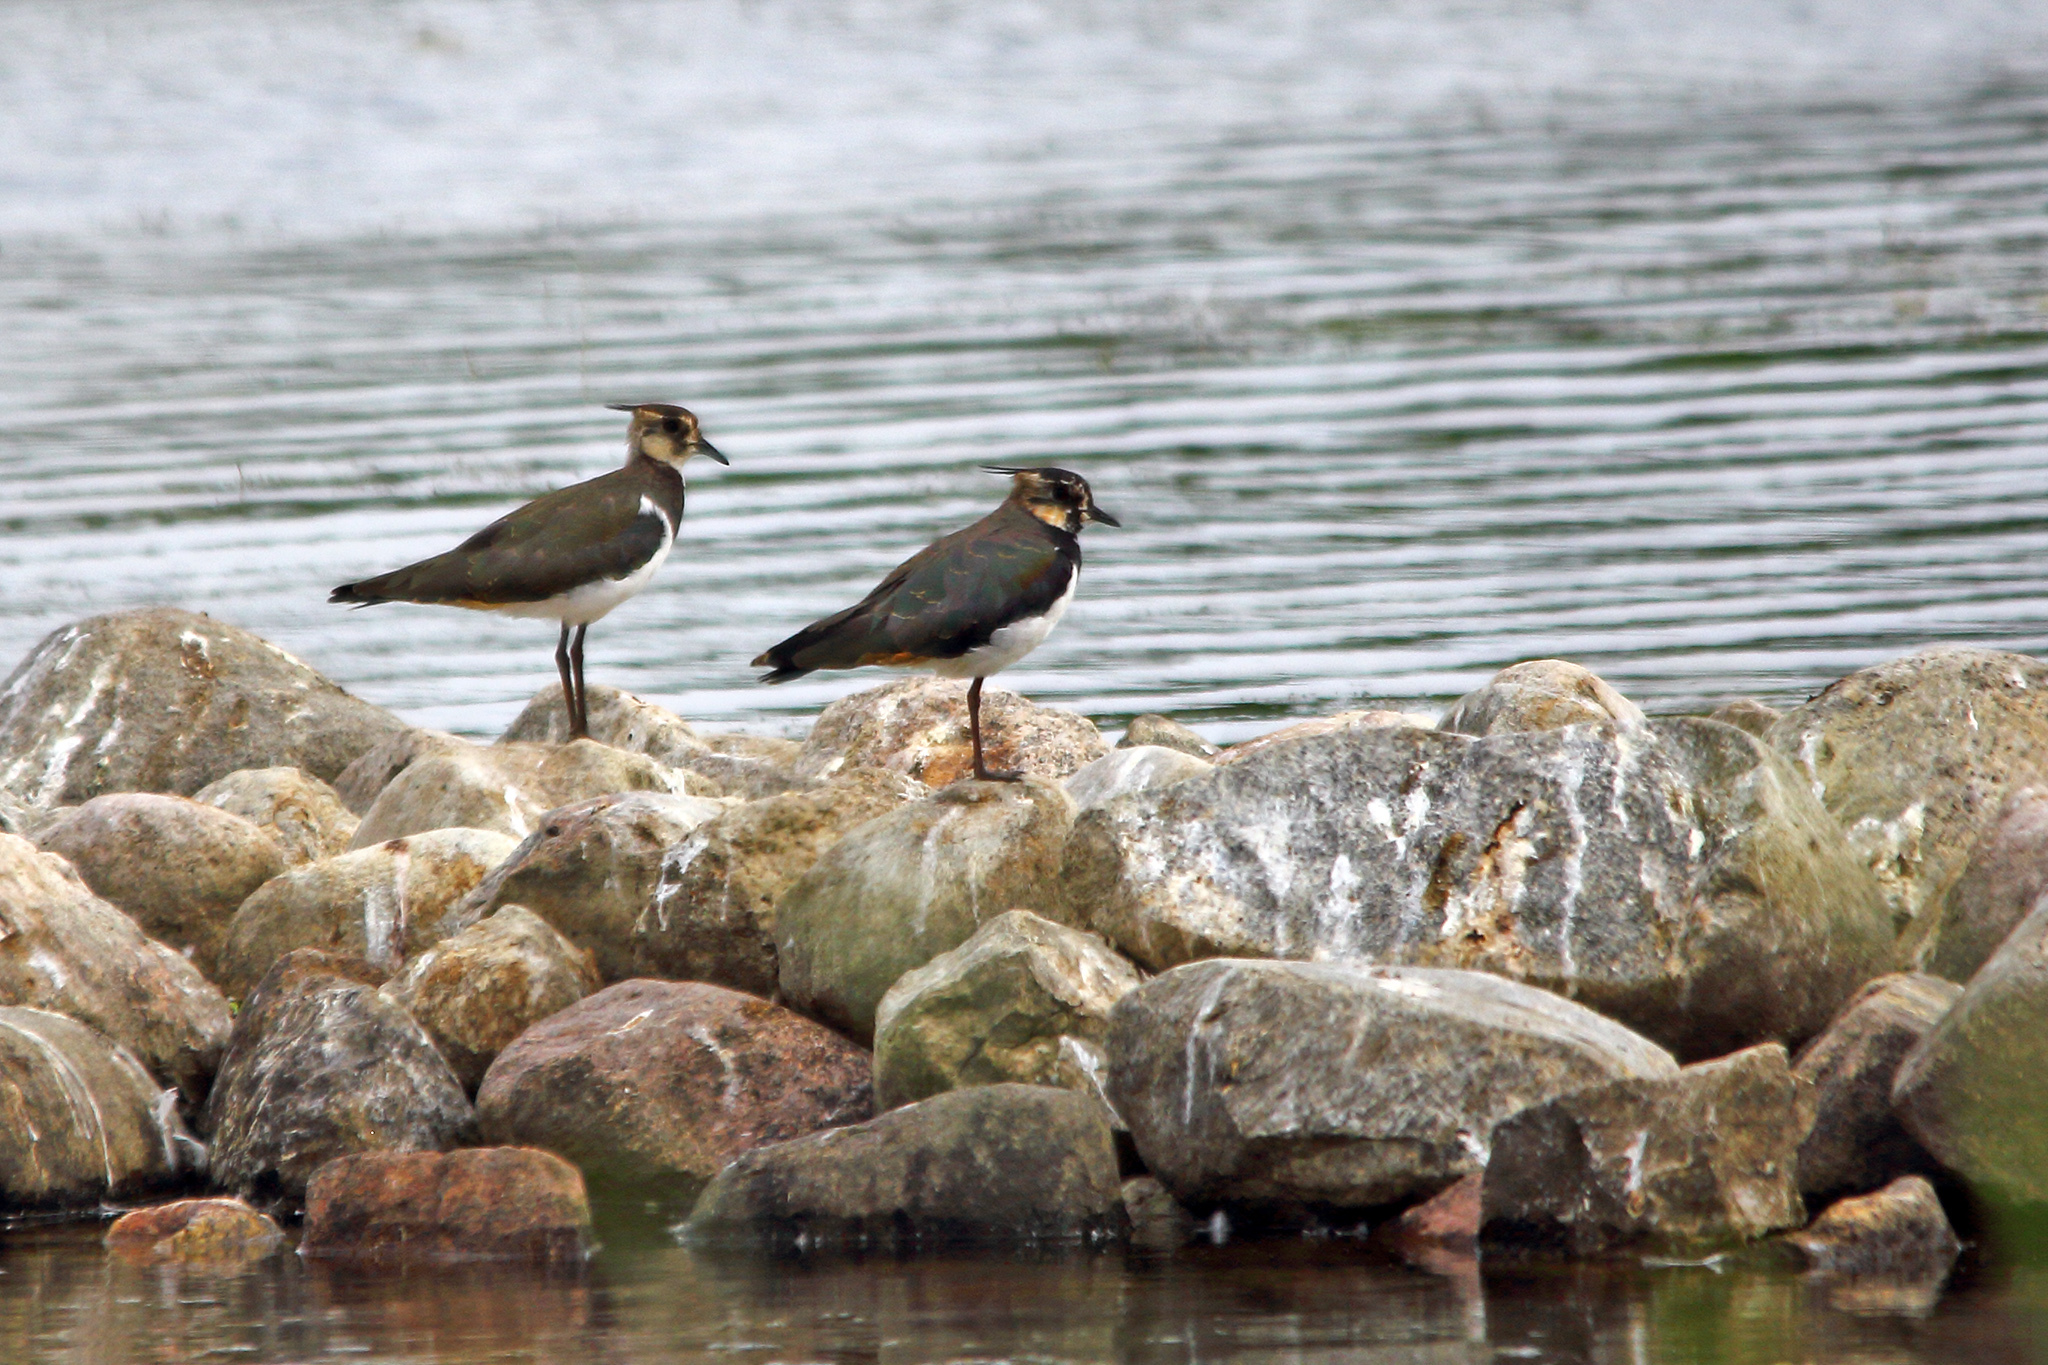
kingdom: Animalia
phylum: Chordata
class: Aves
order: Charadriiformes
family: Charadriidae
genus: Vanellus
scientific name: Vanellus vanellus
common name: Northern lapwing
